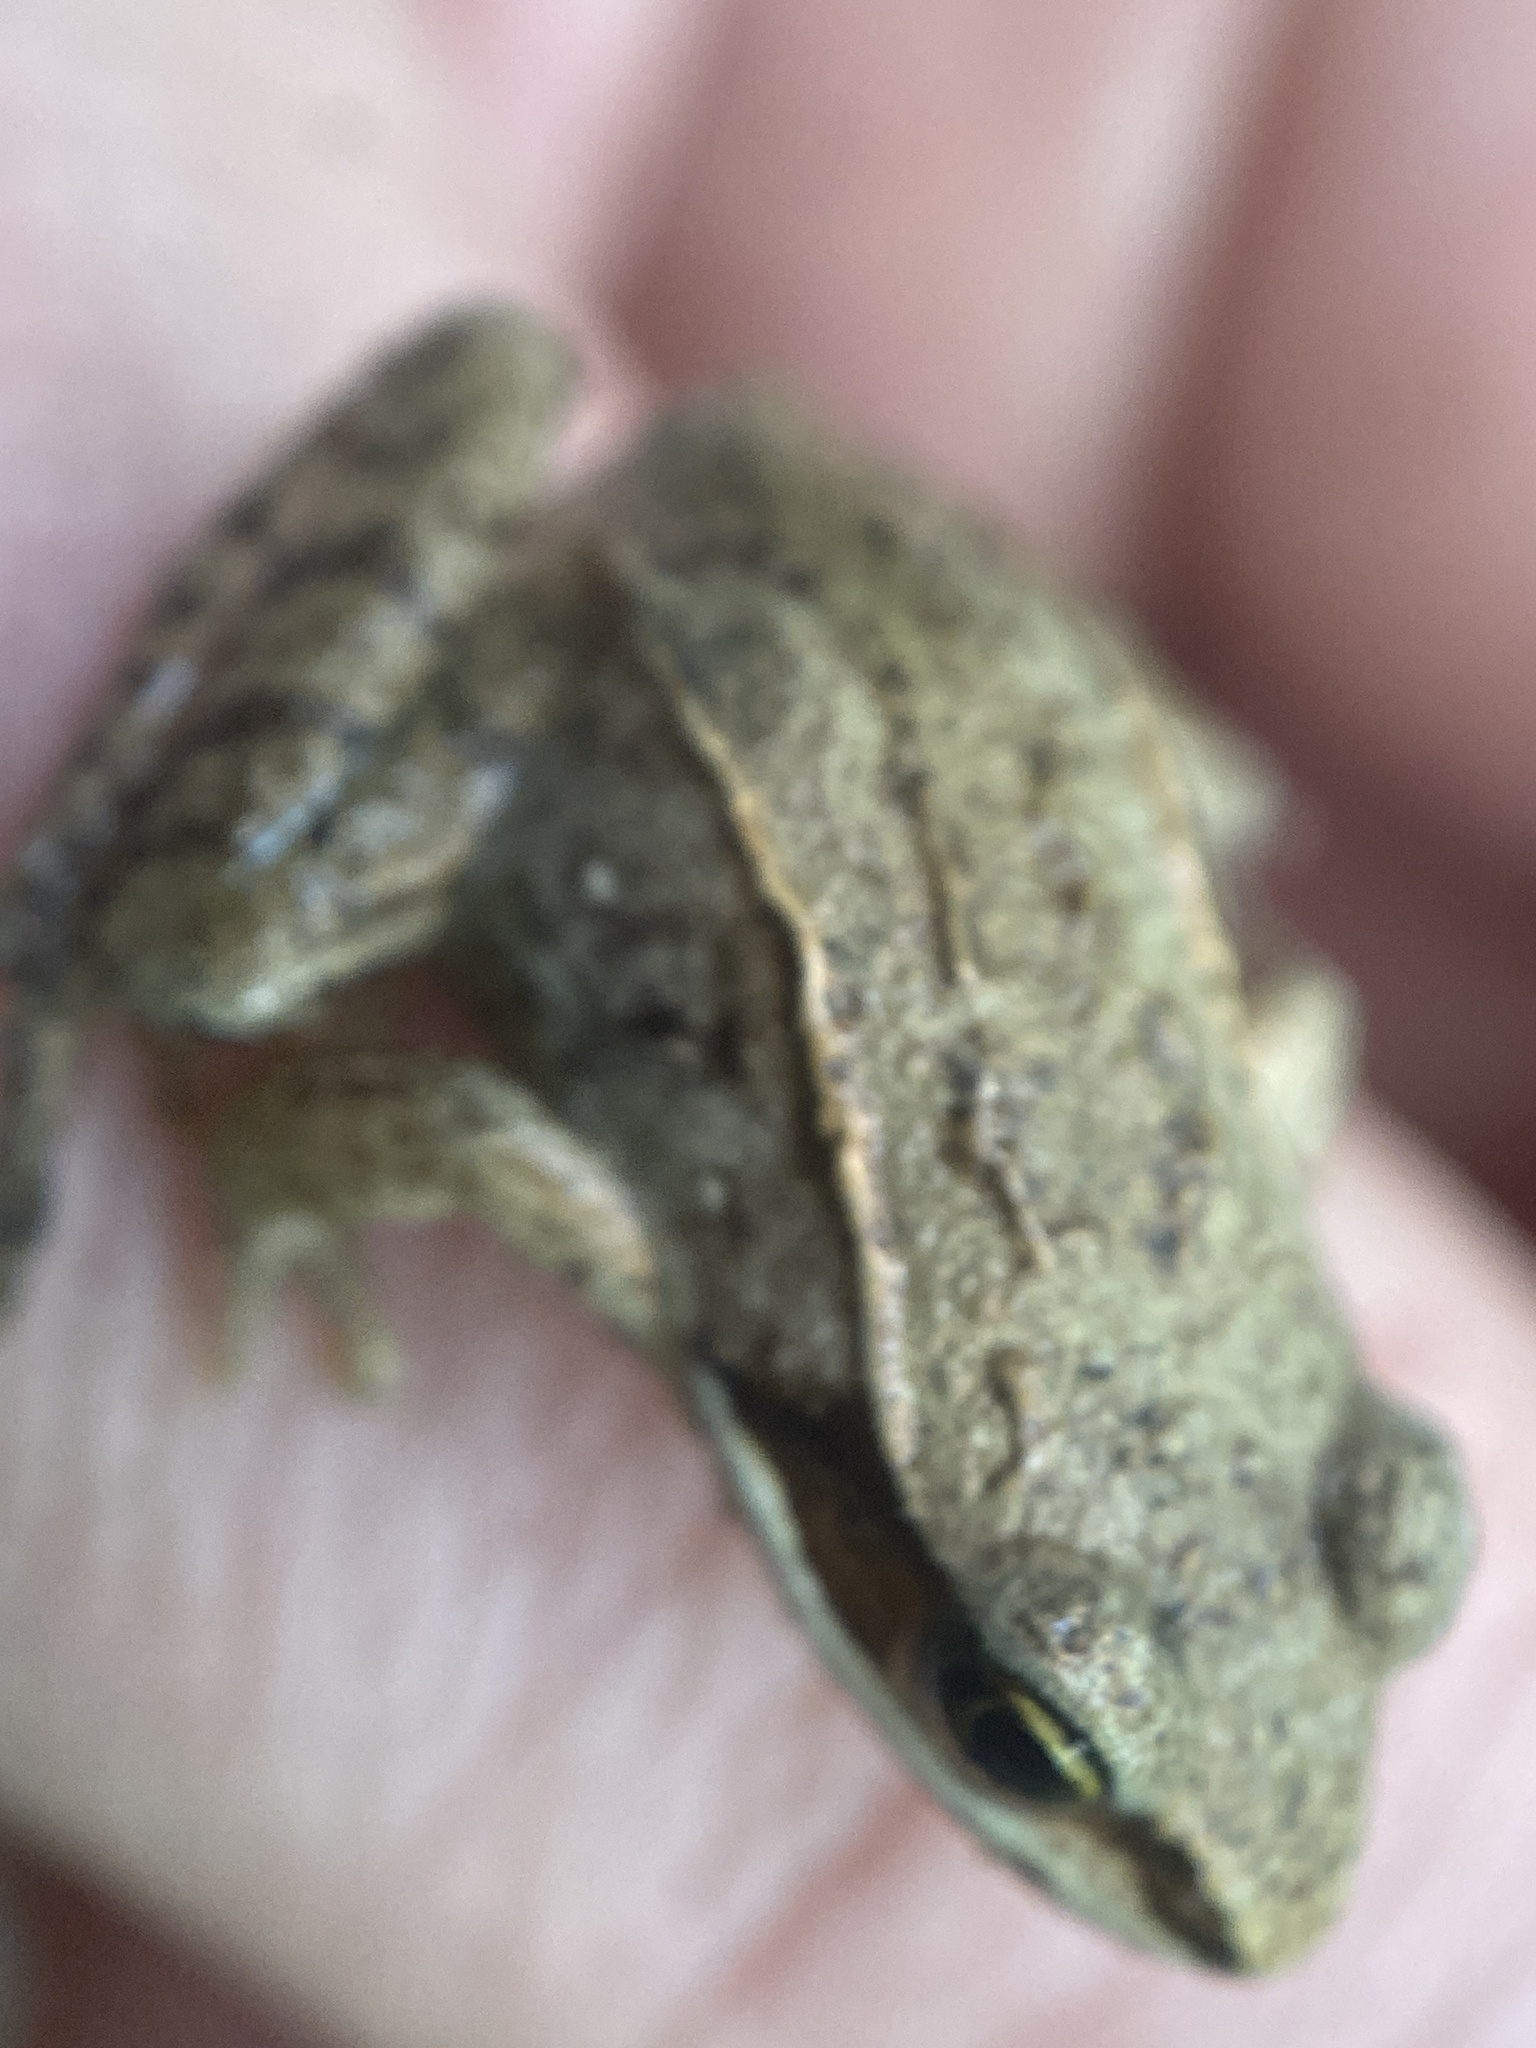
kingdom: Animalia
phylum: Chordata
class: Amphibia
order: Anura
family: Ranidae
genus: Lithobates
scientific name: Lithobates sylvaticus
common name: Wood frog
